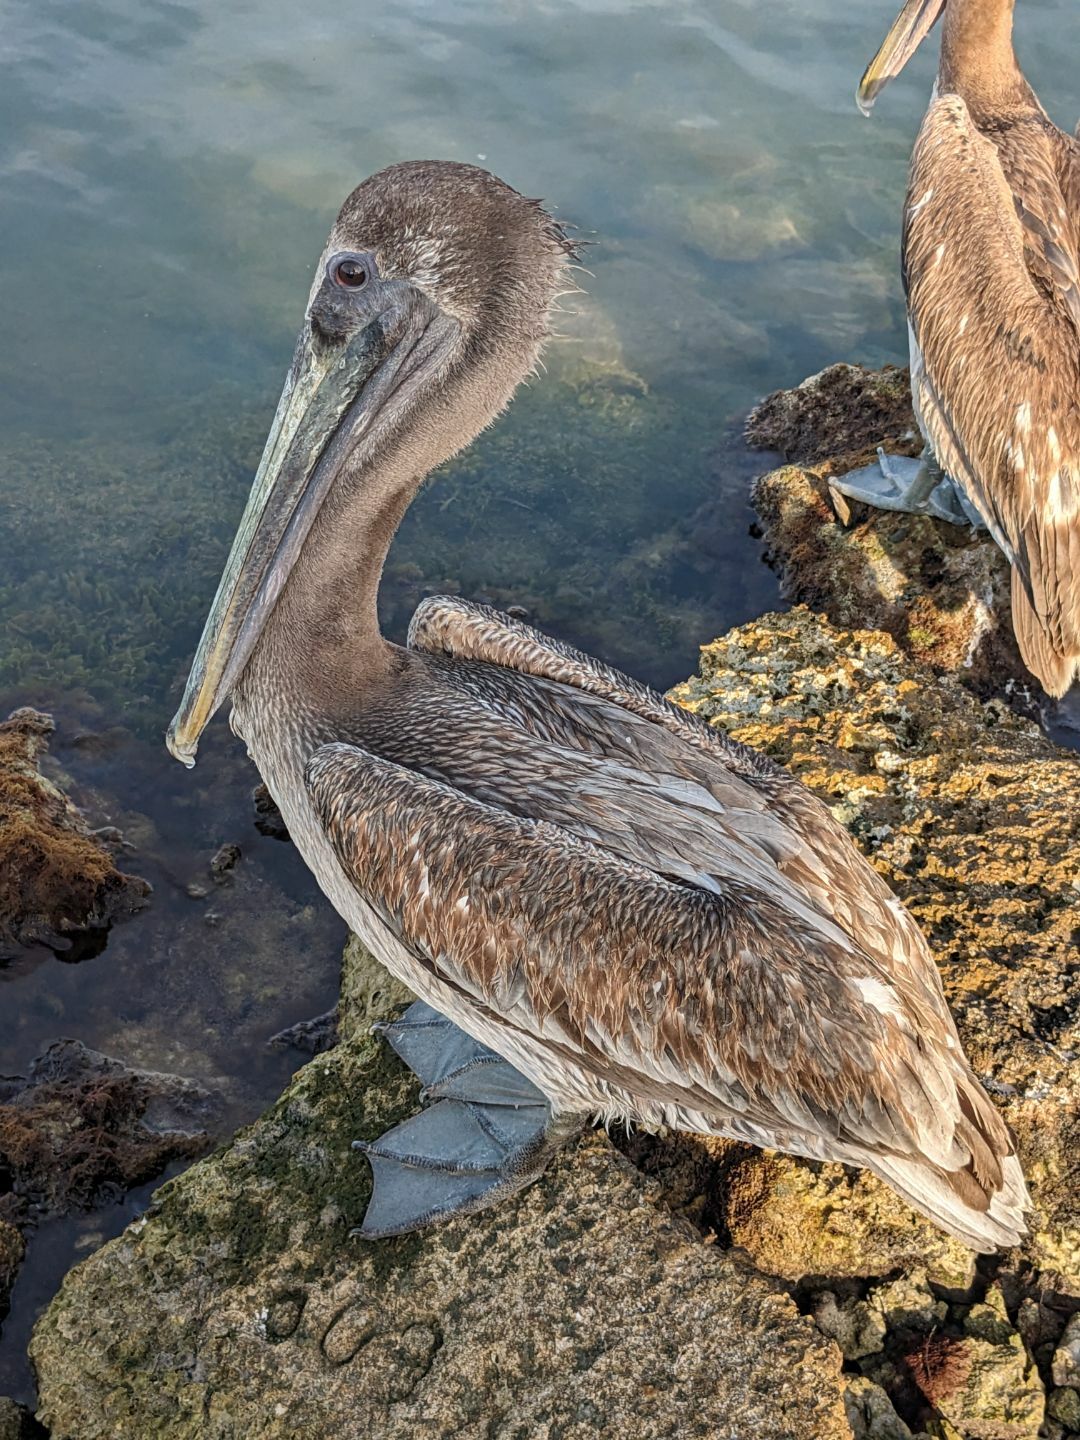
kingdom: Animalia
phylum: Chordata
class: Aves
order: Pelecaniformes
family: Pelecanidae
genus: Pelecanus
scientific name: Pelecanus occidentalis
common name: Brown pelican
